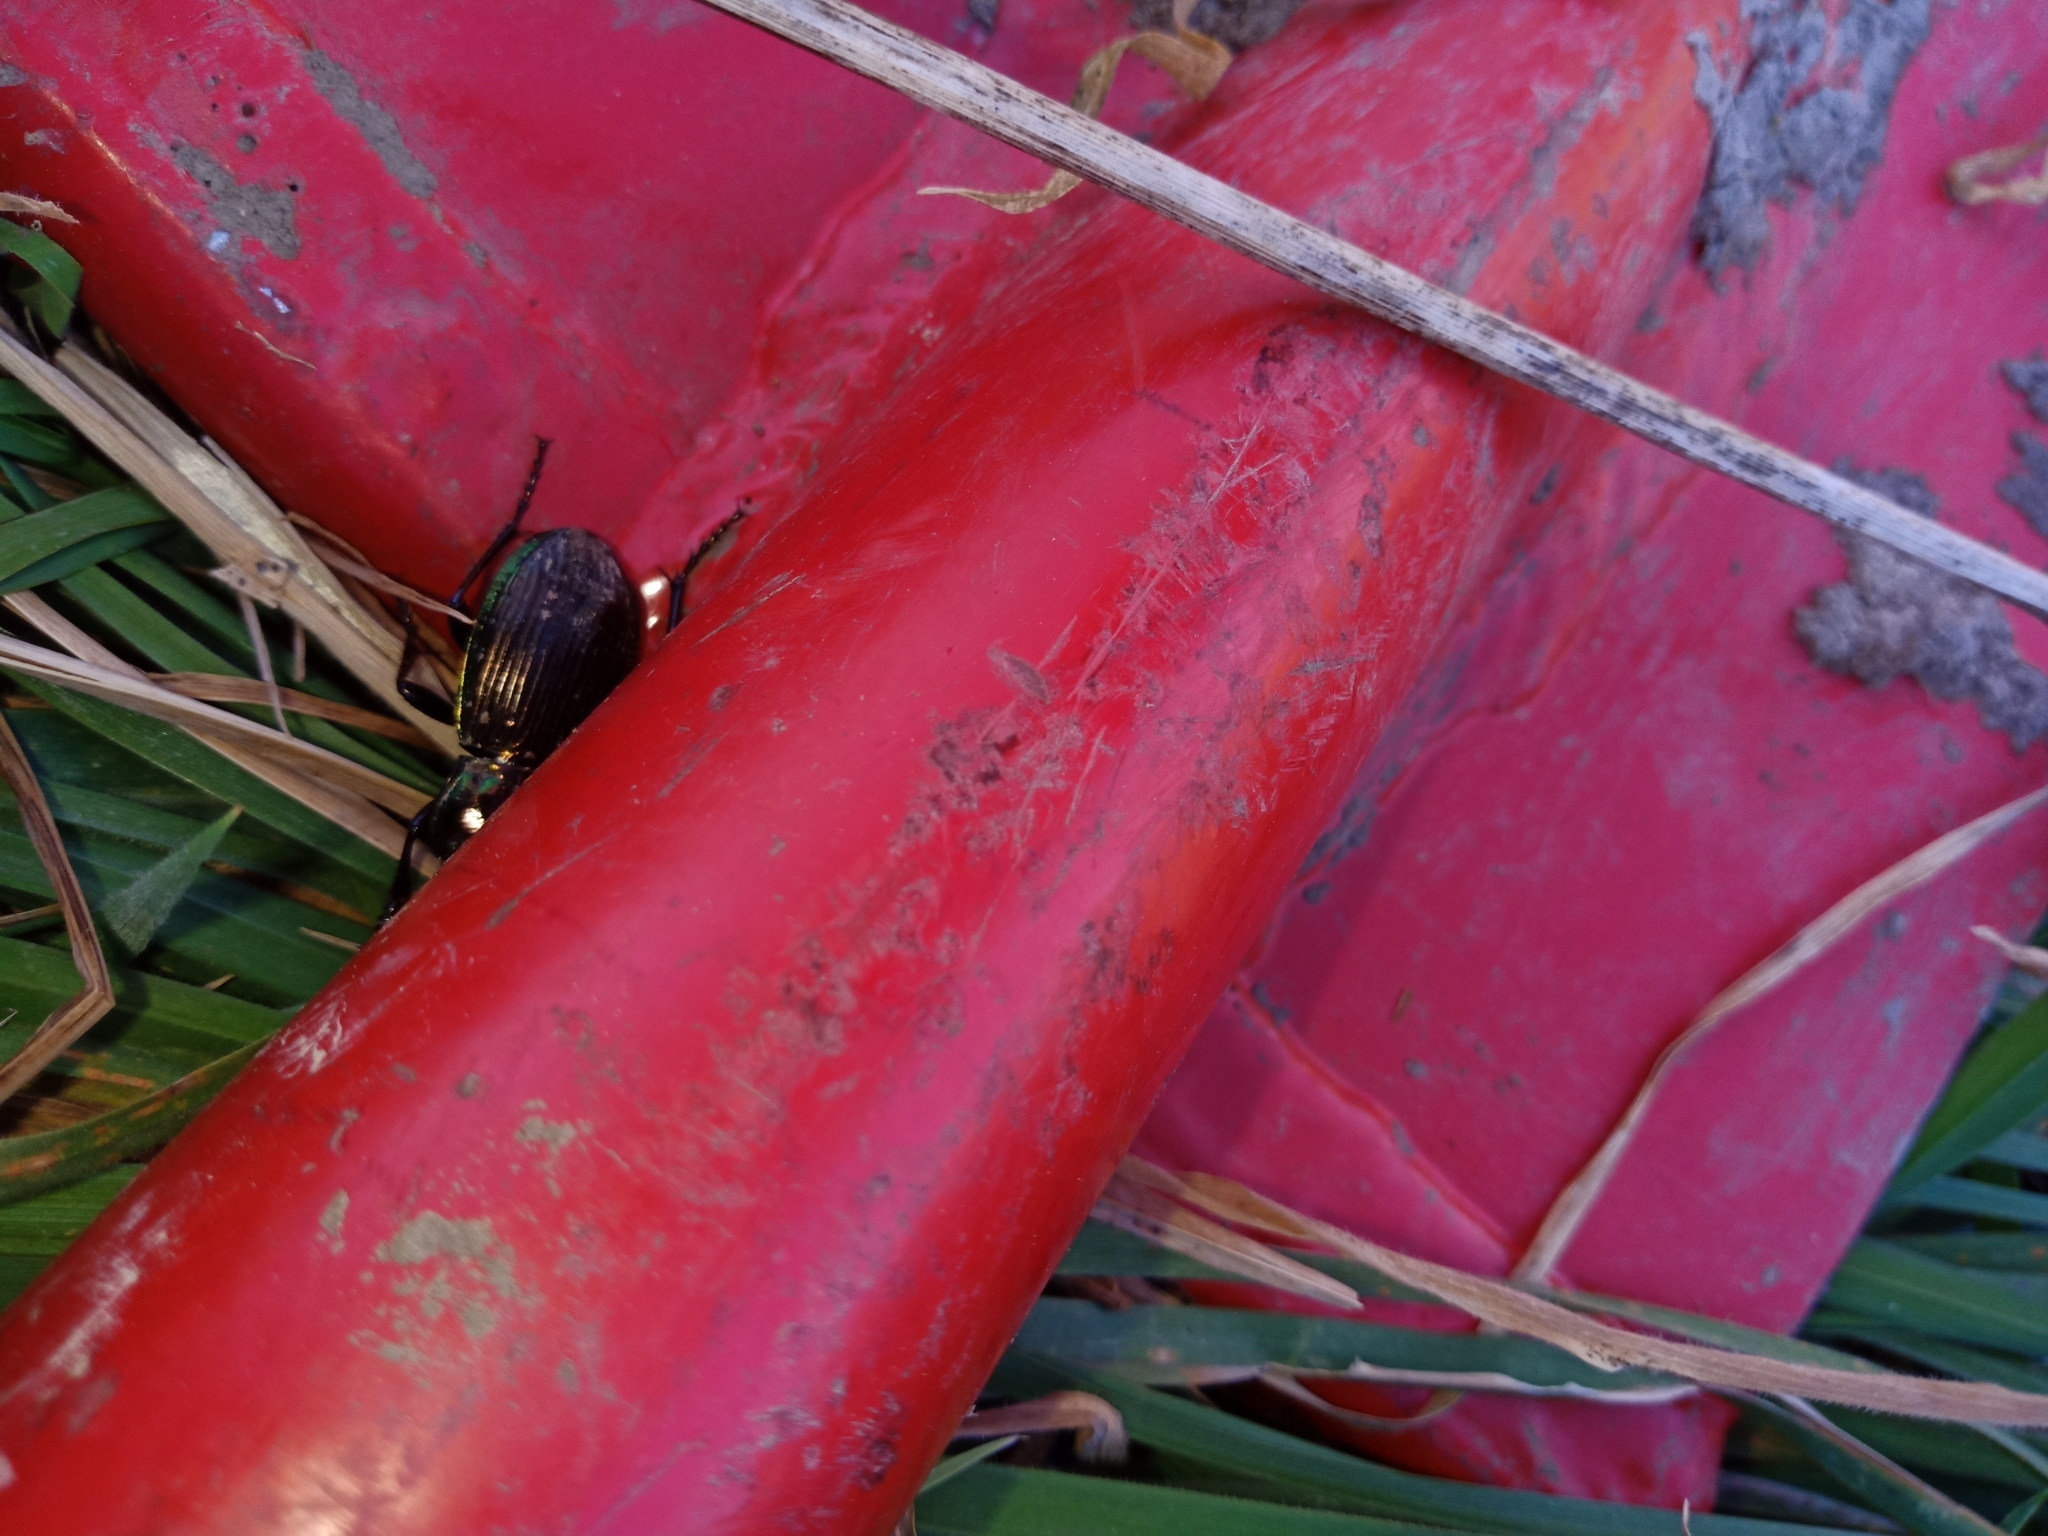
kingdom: Animalia
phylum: Arthropoda
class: Insecta
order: Coleoptera
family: Carabidae
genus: Megadromus
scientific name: Megadromus antarcticus
